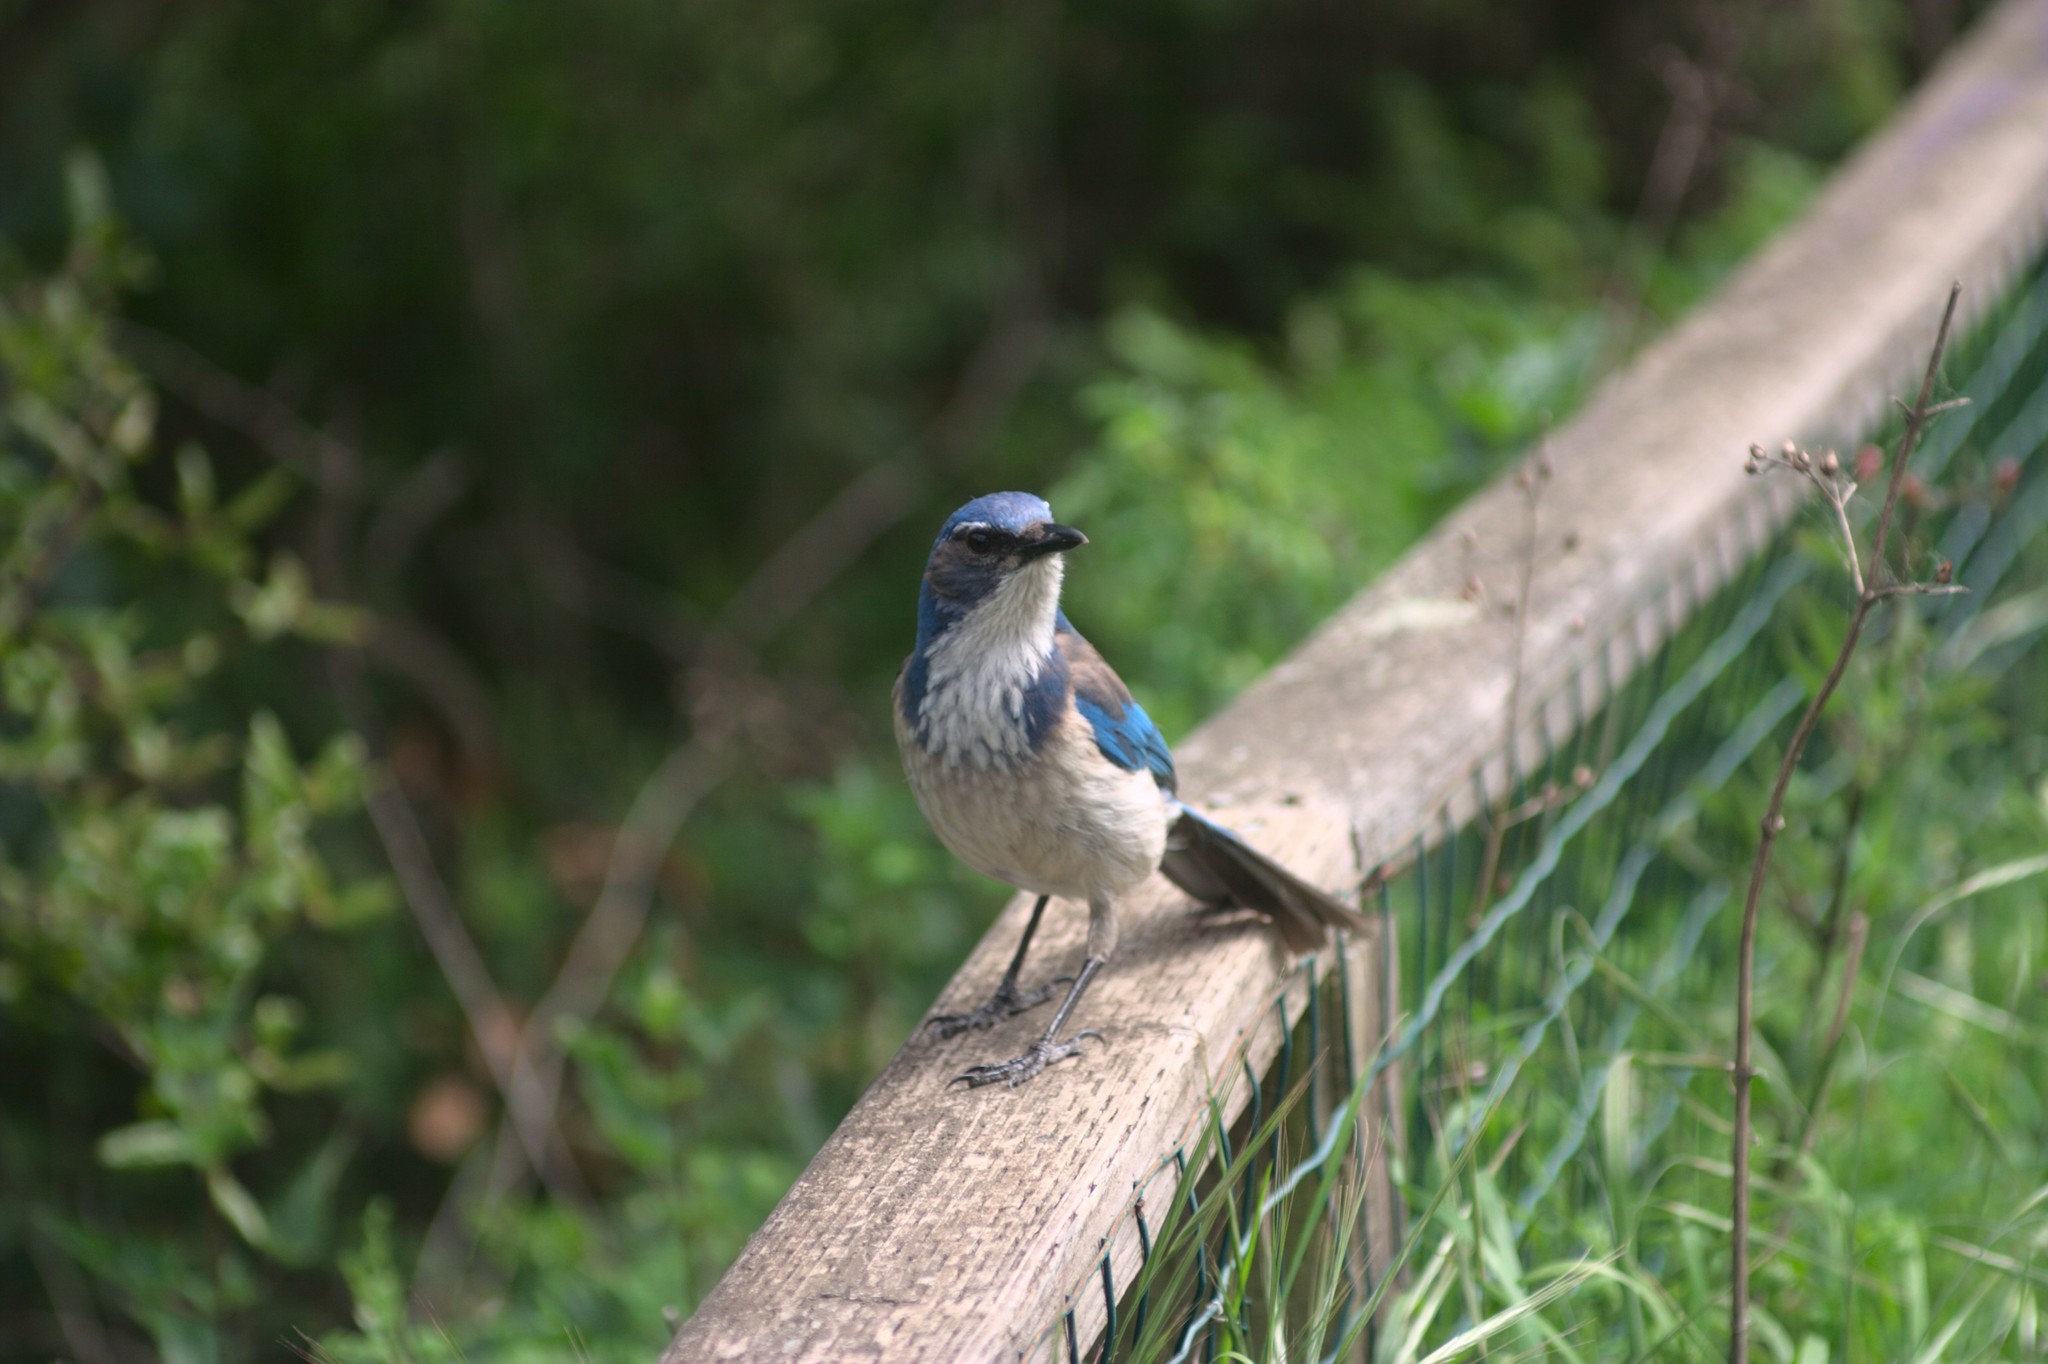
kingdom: Animalia
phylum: Chordata
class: Aves
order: Passeriformes
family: Corvidae
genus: Aphelocoma
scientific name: Aphelocoma californica
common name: California scrub-jay
